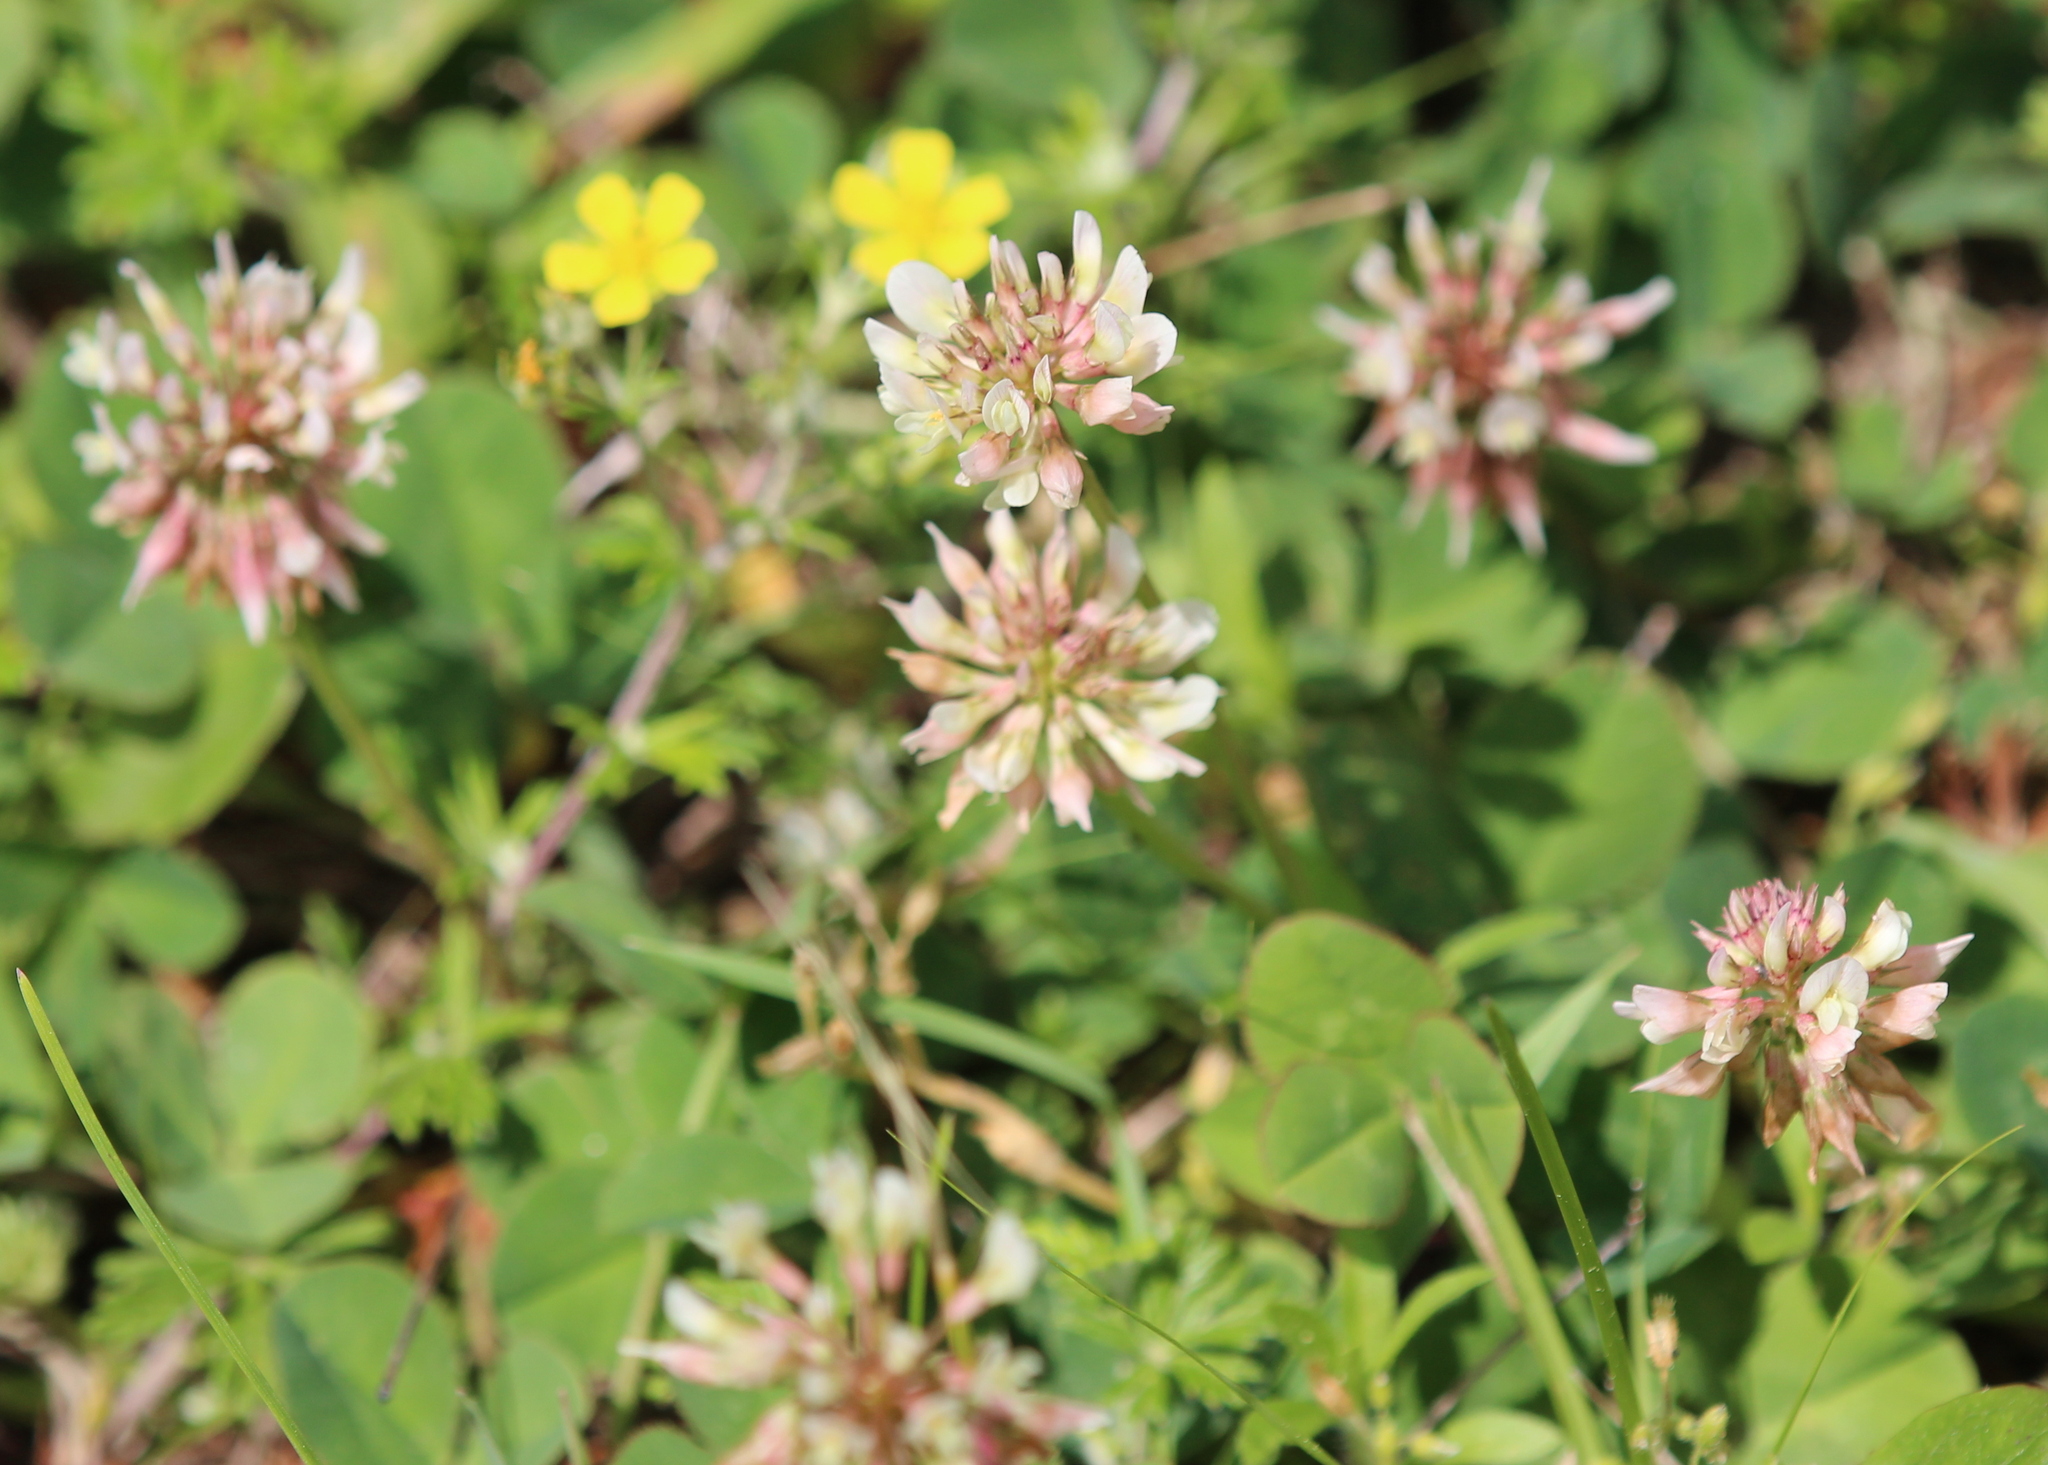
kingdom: Plantae
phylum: Tracheophyta
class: Magnoliopsida
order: Fabales
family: Fabaceae
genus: Trifolium
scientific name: Trifolium repens
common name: White clover
